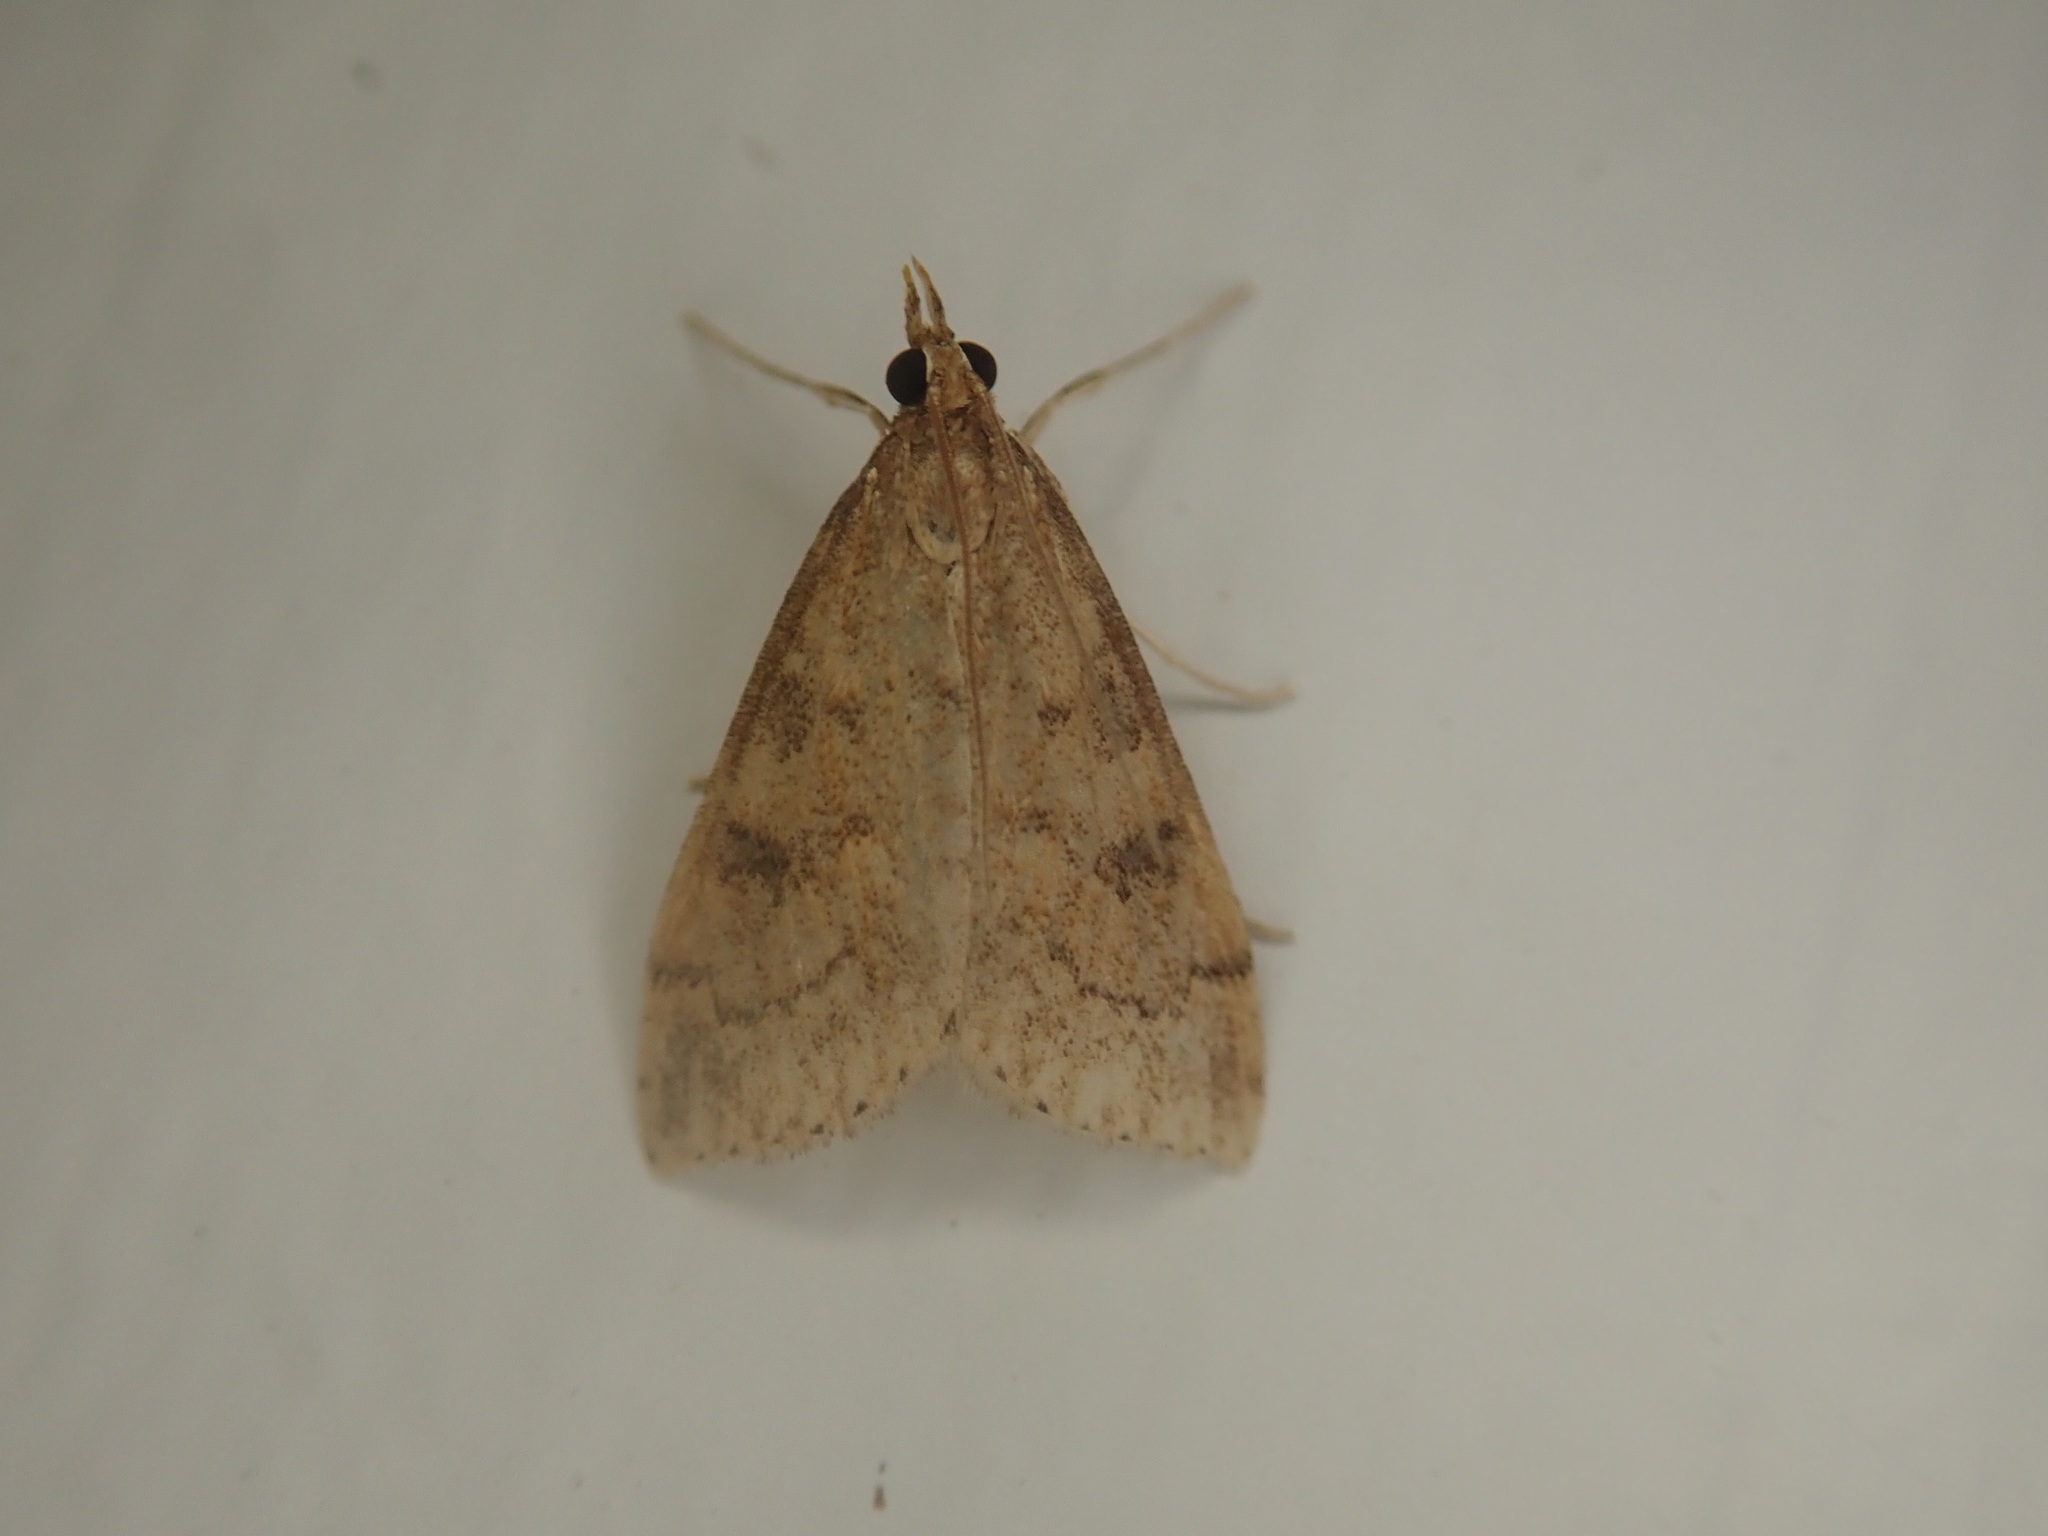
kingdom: Animalia
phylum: Arthropoda
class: Insecta
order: Lepidoptera
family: Crambidae
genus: Udea
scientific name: Udea rubigalis
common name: Celery leaftier moth
